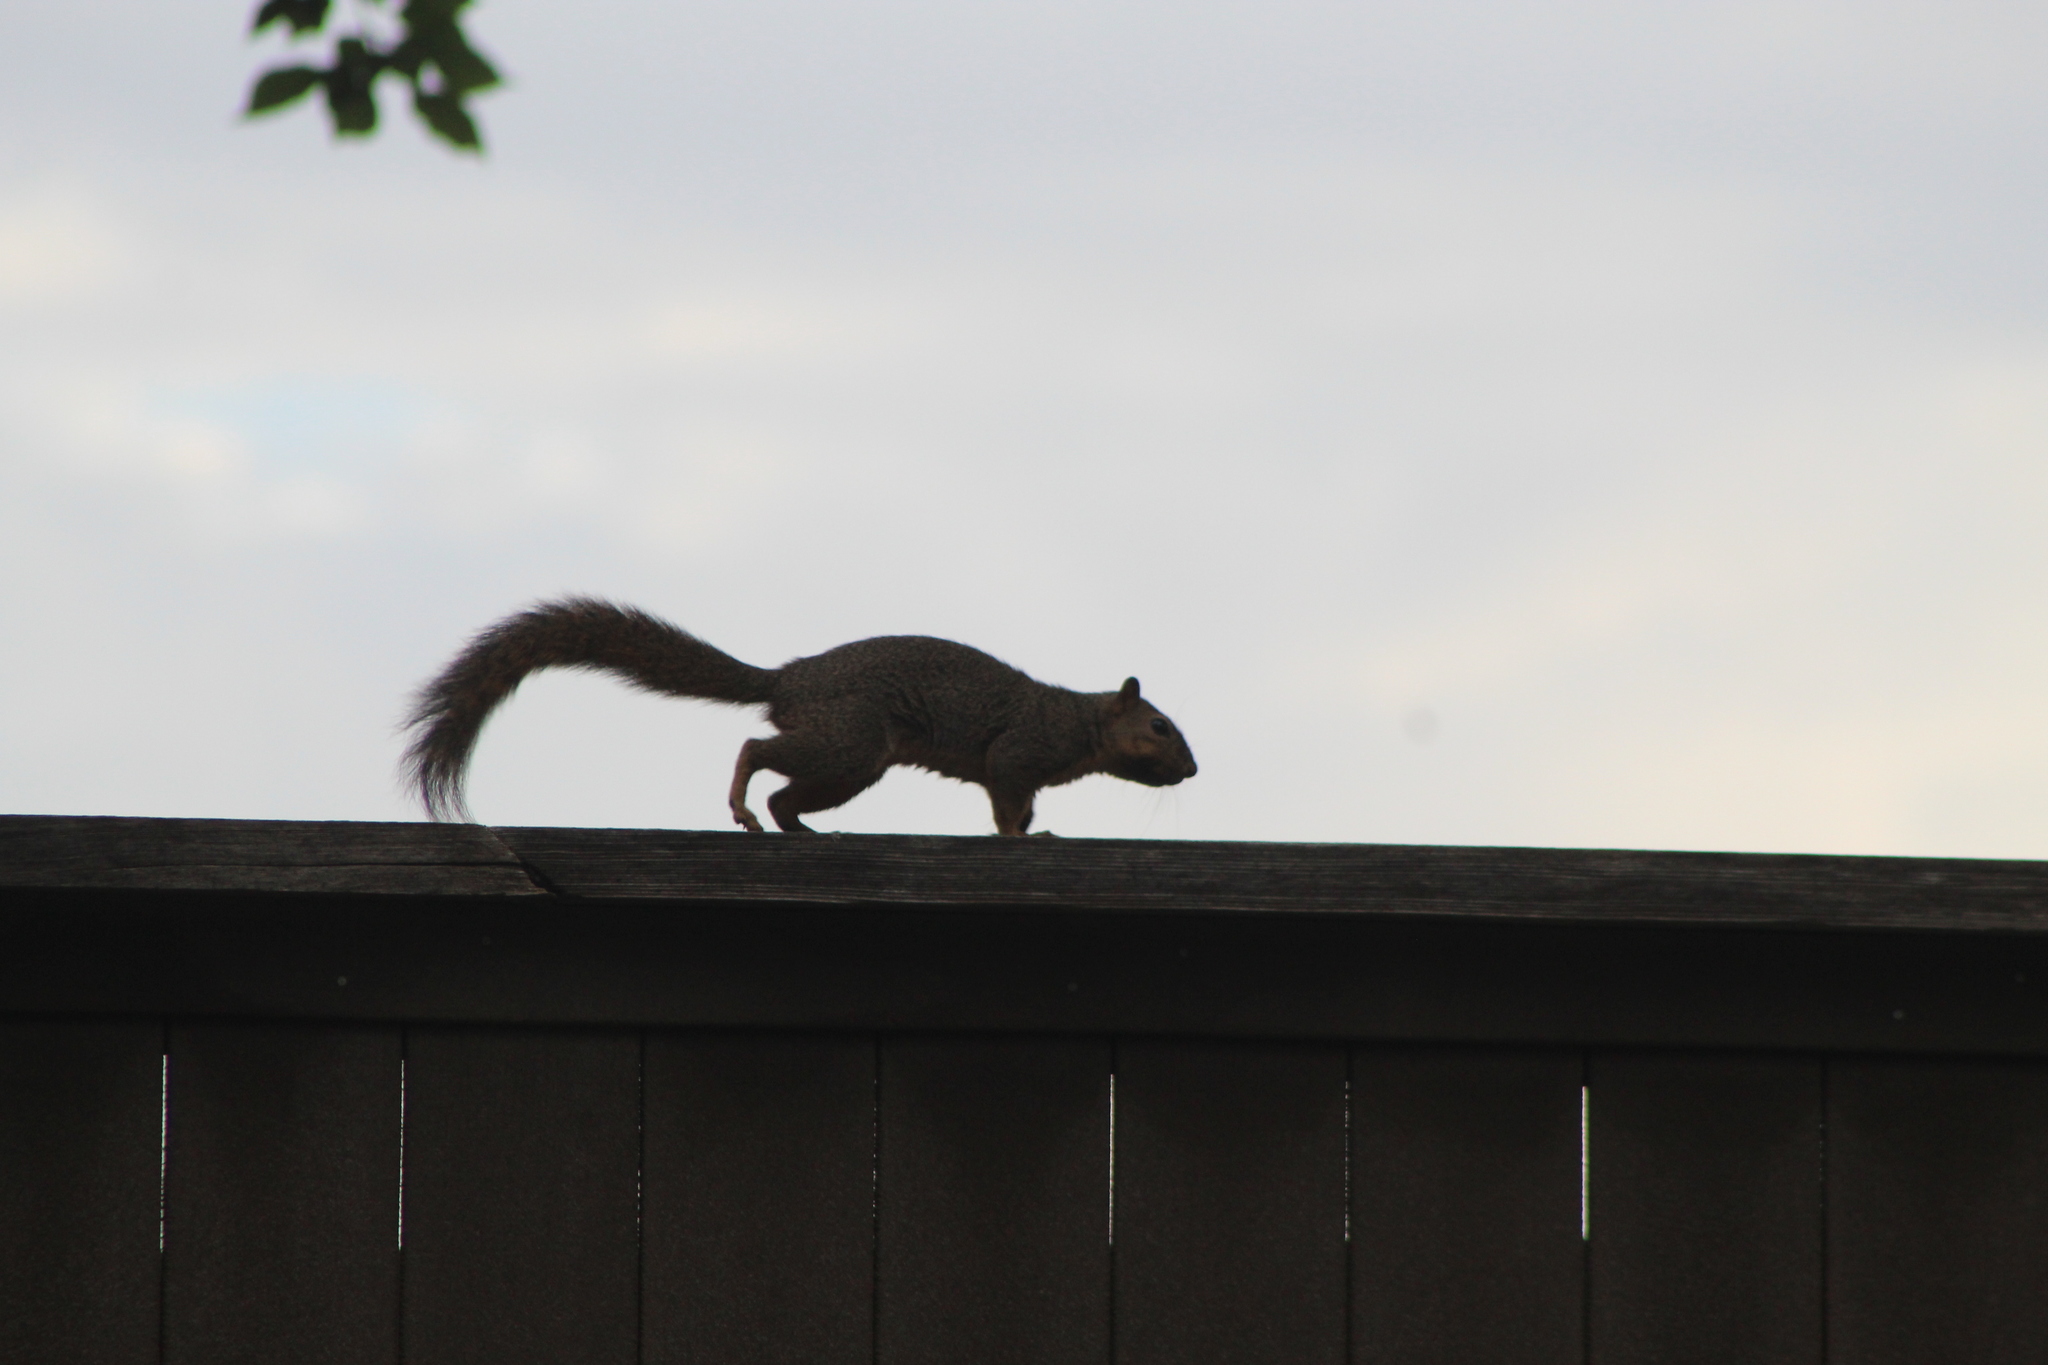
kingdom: Animalia
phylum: Chordata
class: Mammalia
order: Rodentia
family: Sciuridae
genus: Sciurus
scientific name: Sciurus niger
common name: Fox squirrel
